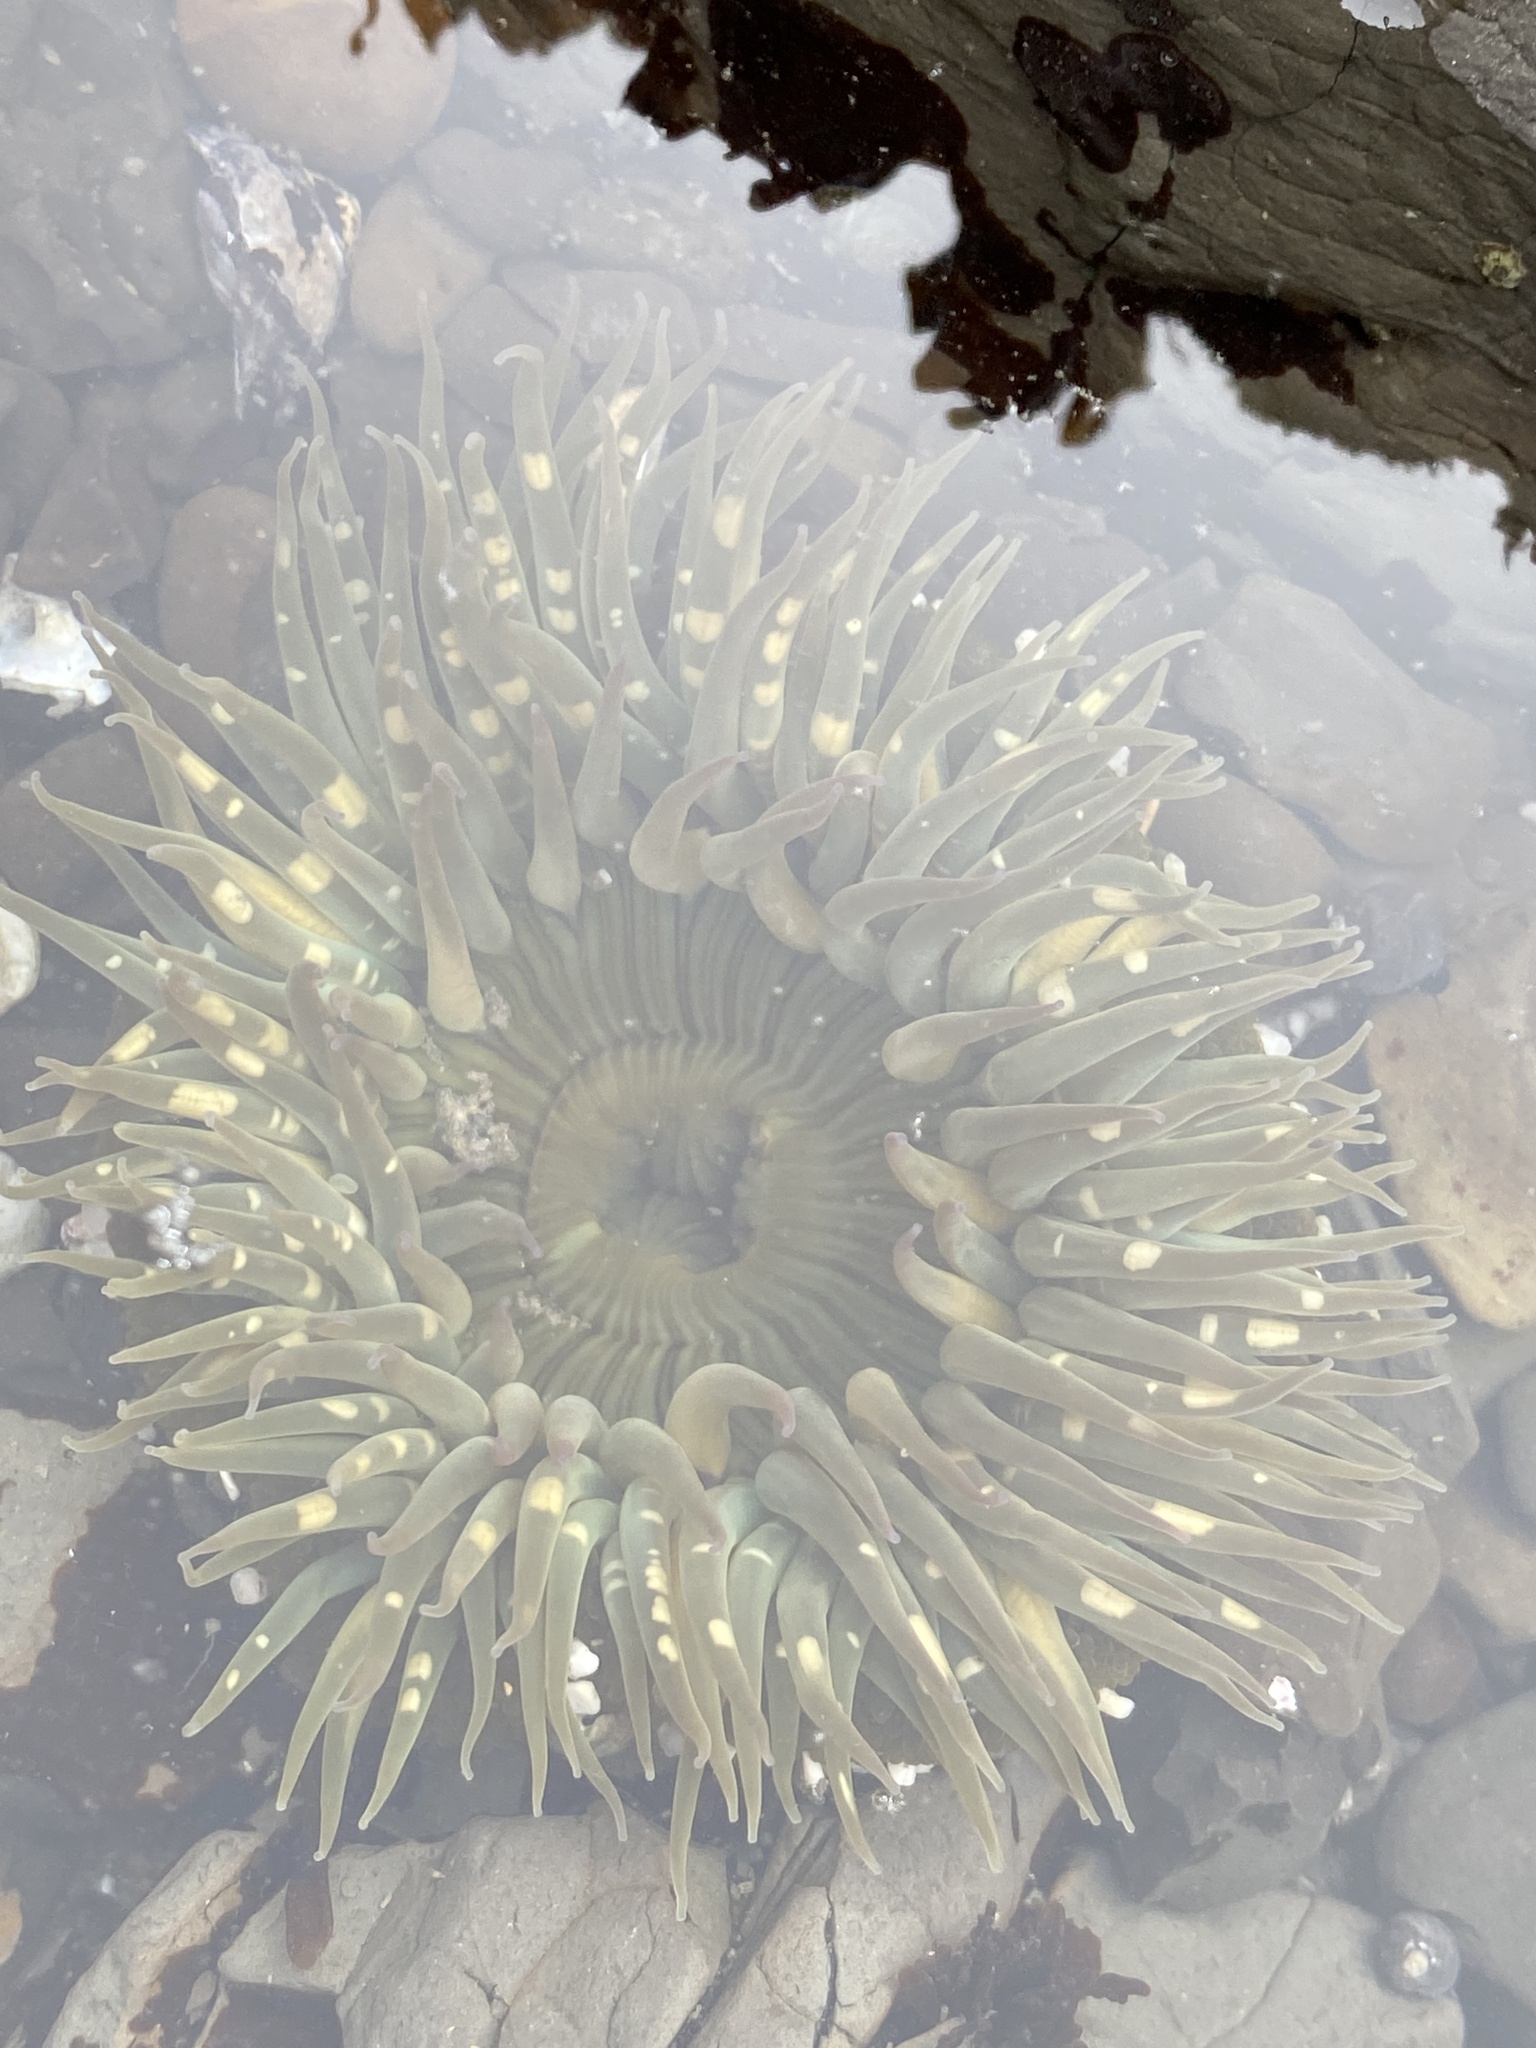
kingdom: Animalia
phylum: Cnidaria
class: Anthozoa
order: Actiniaria
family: Actiniidae
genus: Anthopleura
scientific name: Anthopleura sola
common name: Sun anemone
